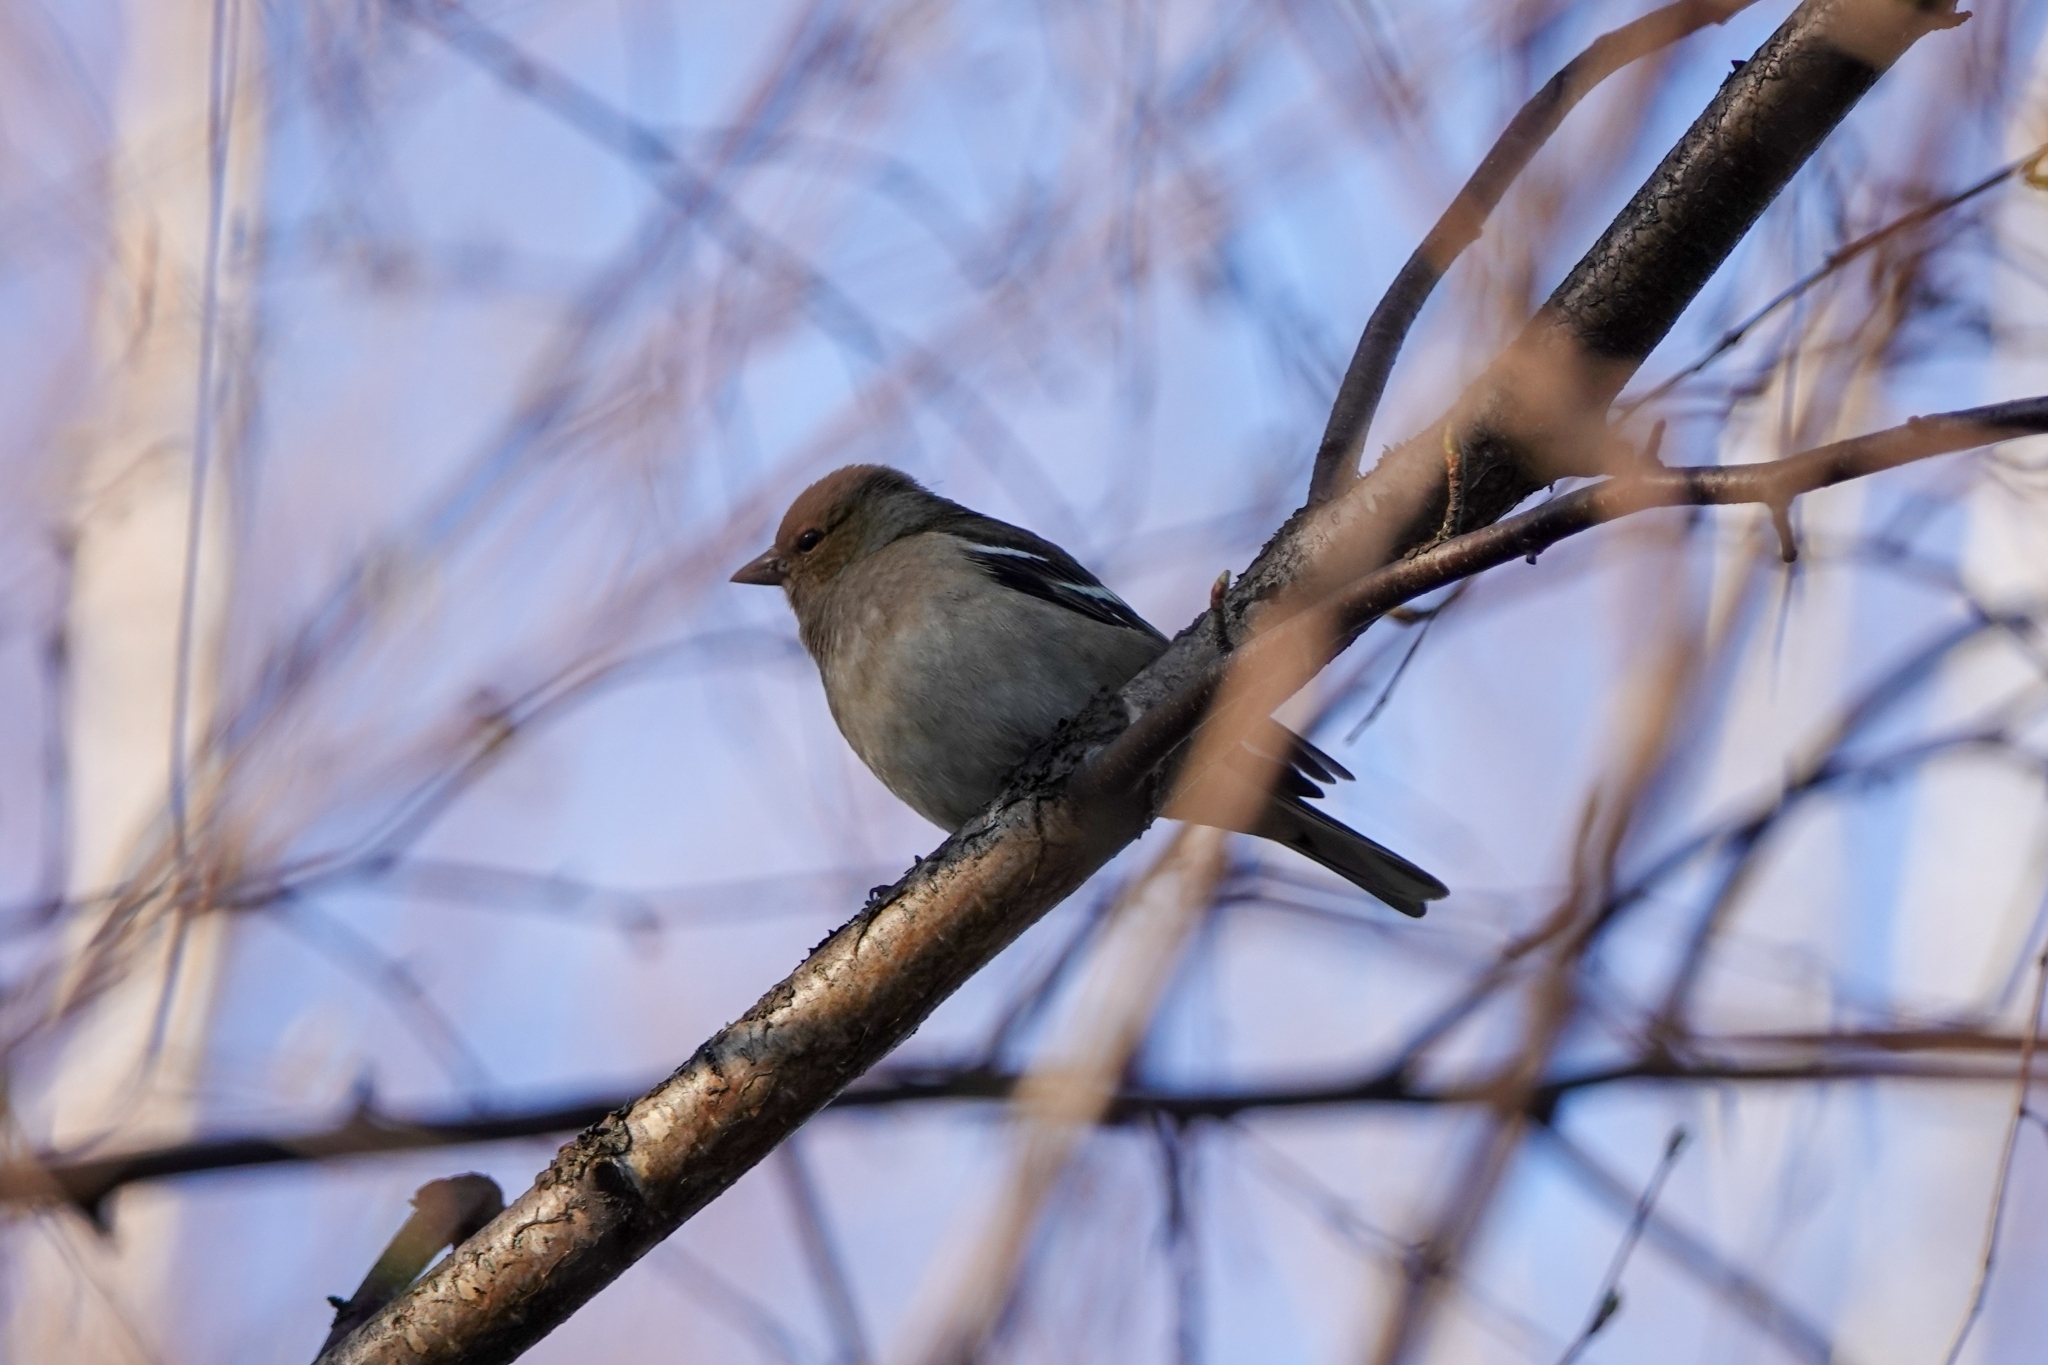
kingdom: Animalia
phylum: Chordata
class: Aves
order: Passeriformes
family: Fringillidae
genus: Fringilla
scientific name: Fringilla coelebs
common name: Common chaffinch
